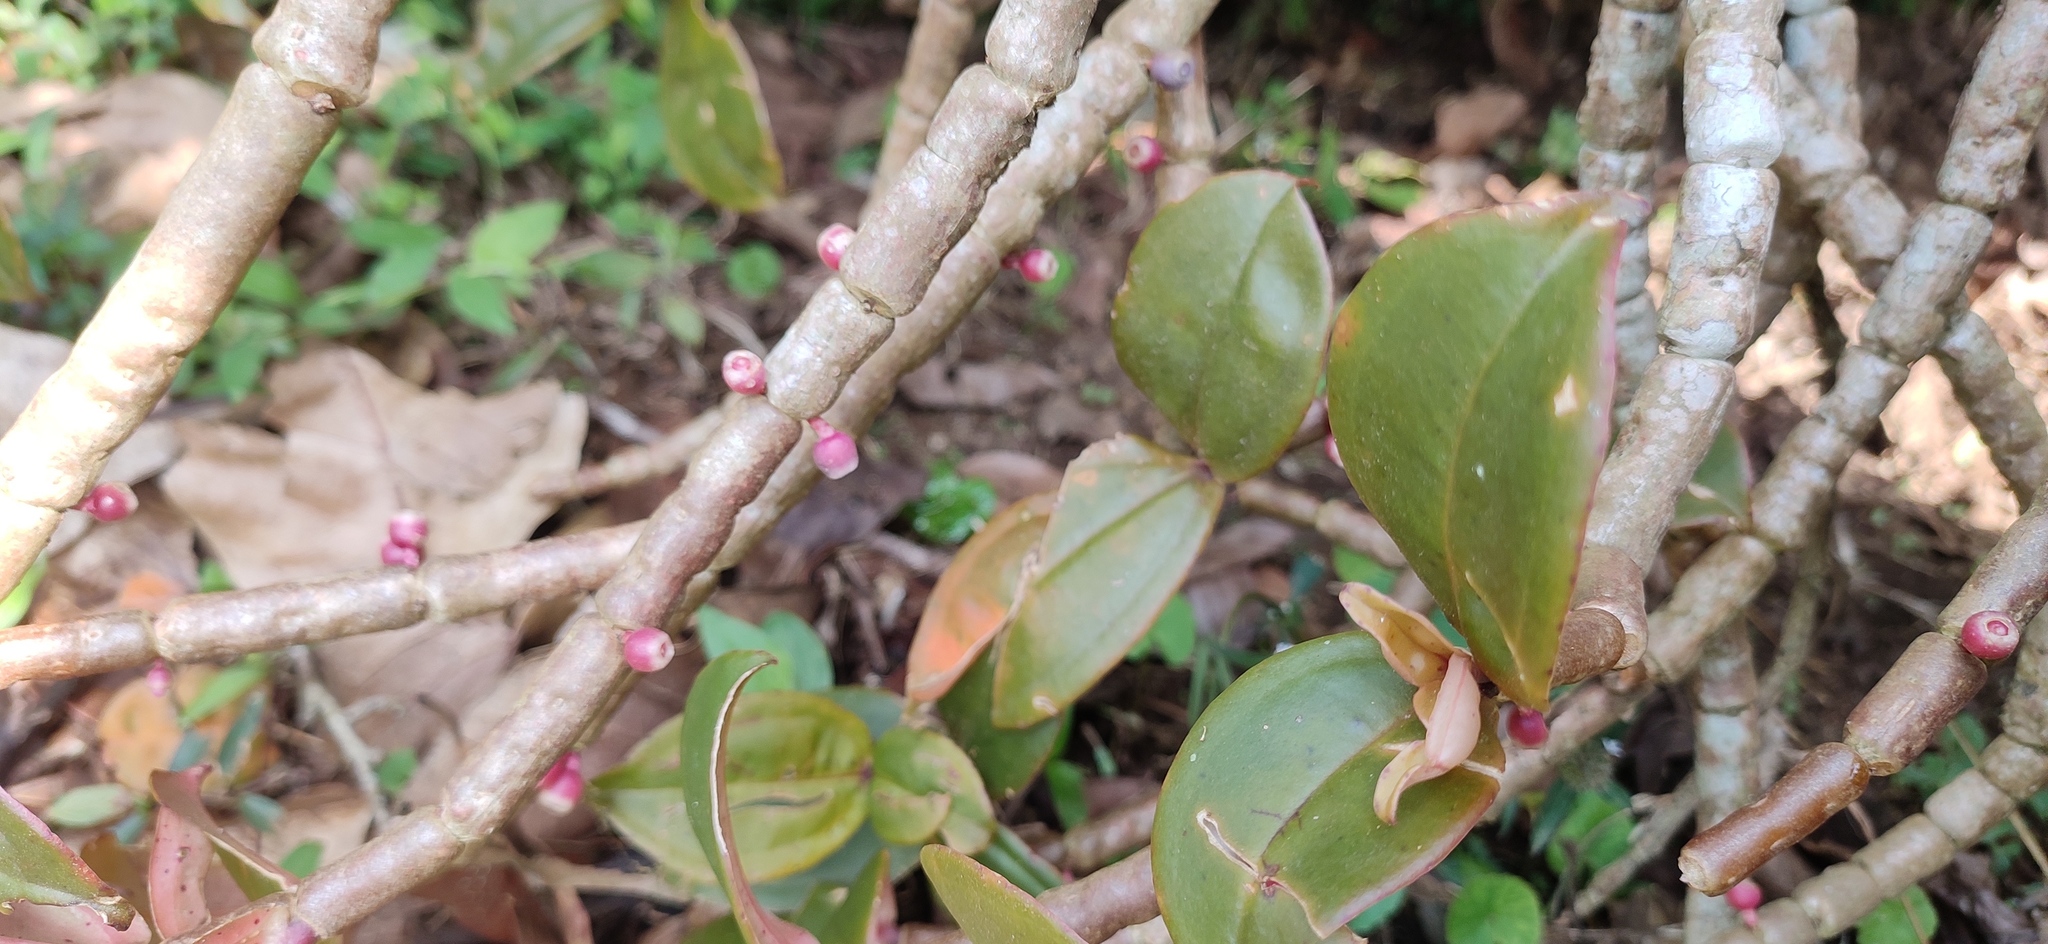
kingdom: Plantae
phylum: Tracheophyta
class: Magnoliopsida
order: Myrtales
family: Melastomataceae
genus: Medinilla
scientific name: Medinilla anamalaiana
